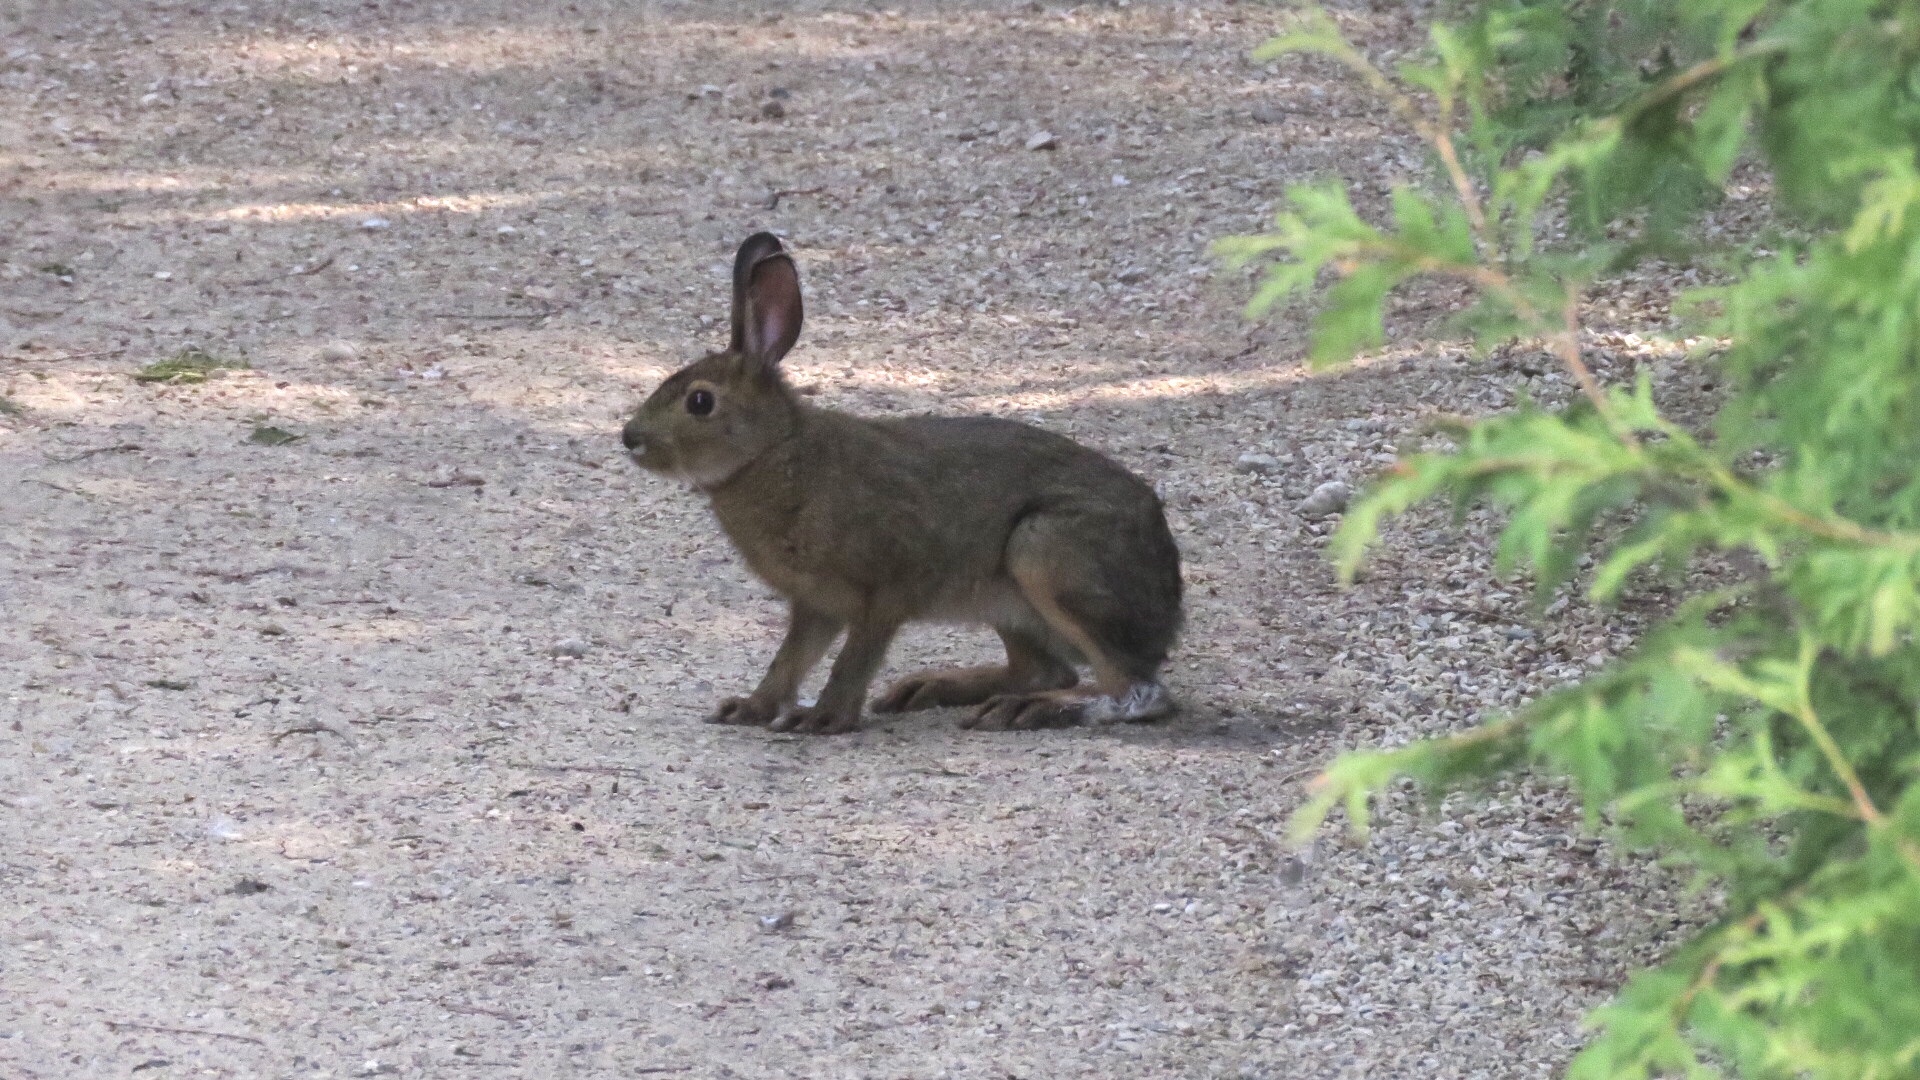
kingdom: Animalia
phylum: Chordata
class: Mammalia
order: Lagomorpha
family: Leporidae
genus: Lepus
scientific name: Lepus americanus
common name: Snowshoe hare
